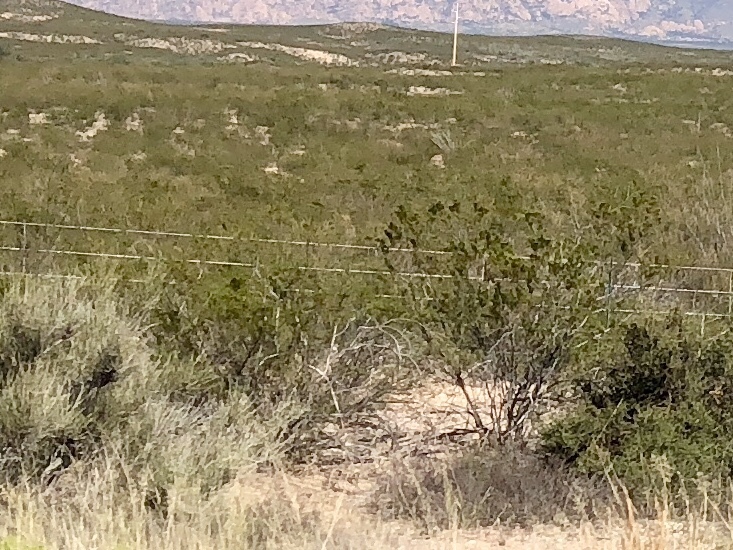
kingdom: Plantae
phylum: Tracheophyta
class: Magnoliopsida
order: Zygophyllales
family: Zygophyllaceae
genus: Larrea
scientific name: Larrea tridentata
